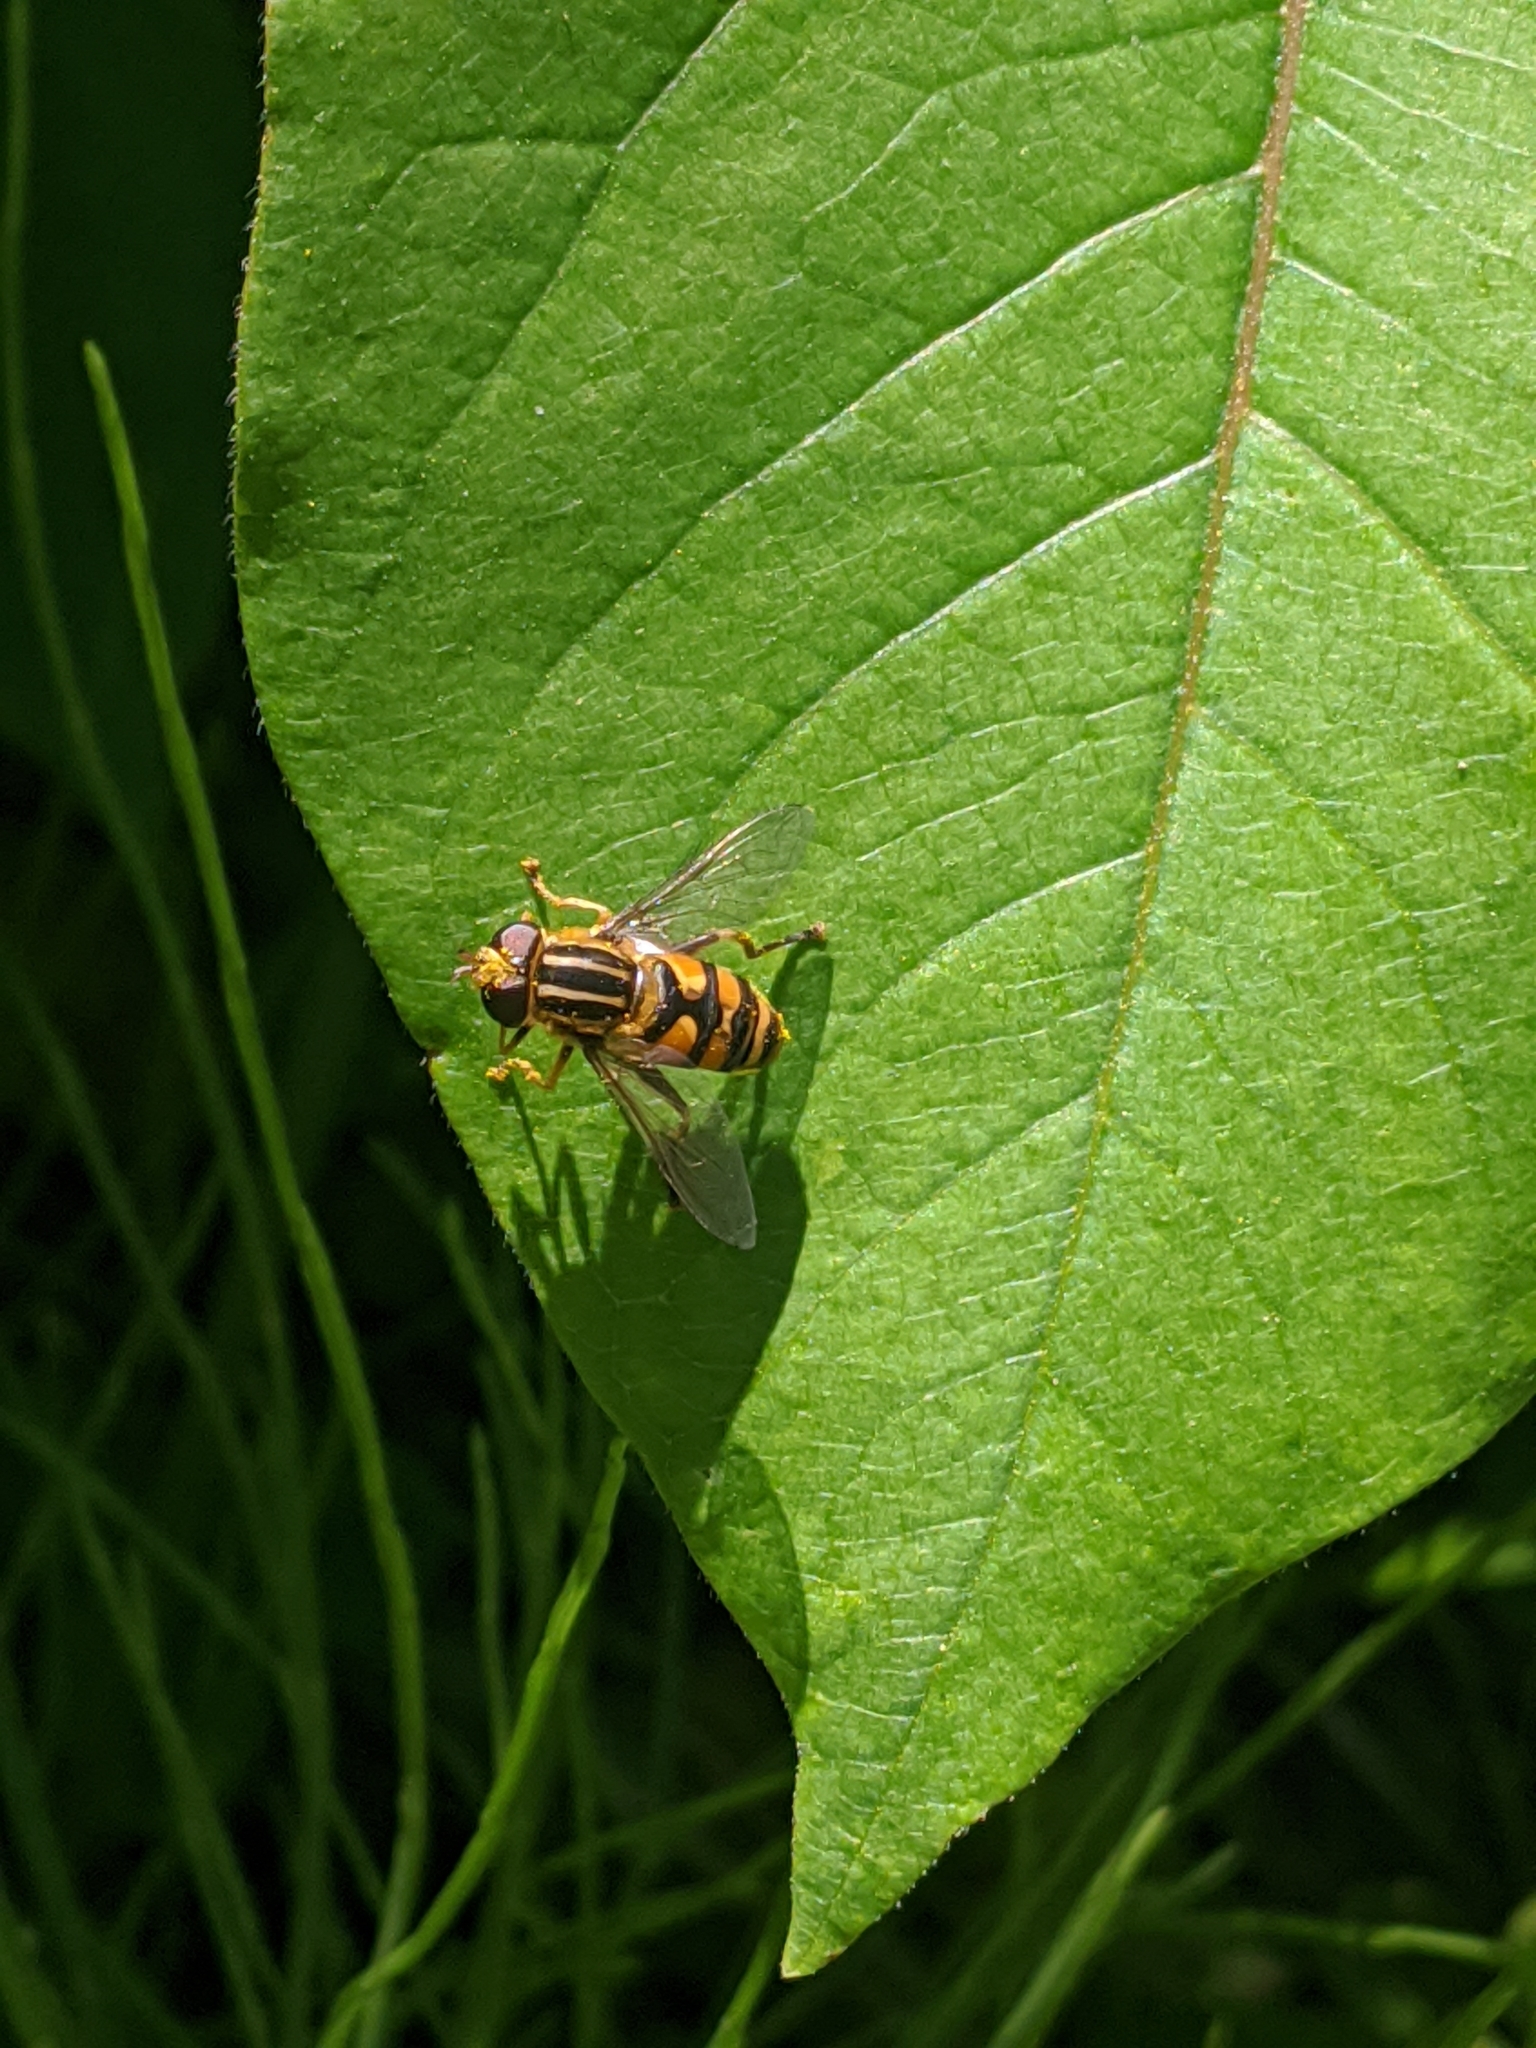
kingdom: Animalia
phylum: Arthropoda
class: Insecta
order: Diptera
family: Syrphidae
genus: Helophilus
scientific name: Helophilus fasciatus
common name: Narrow-headed marsh fly
